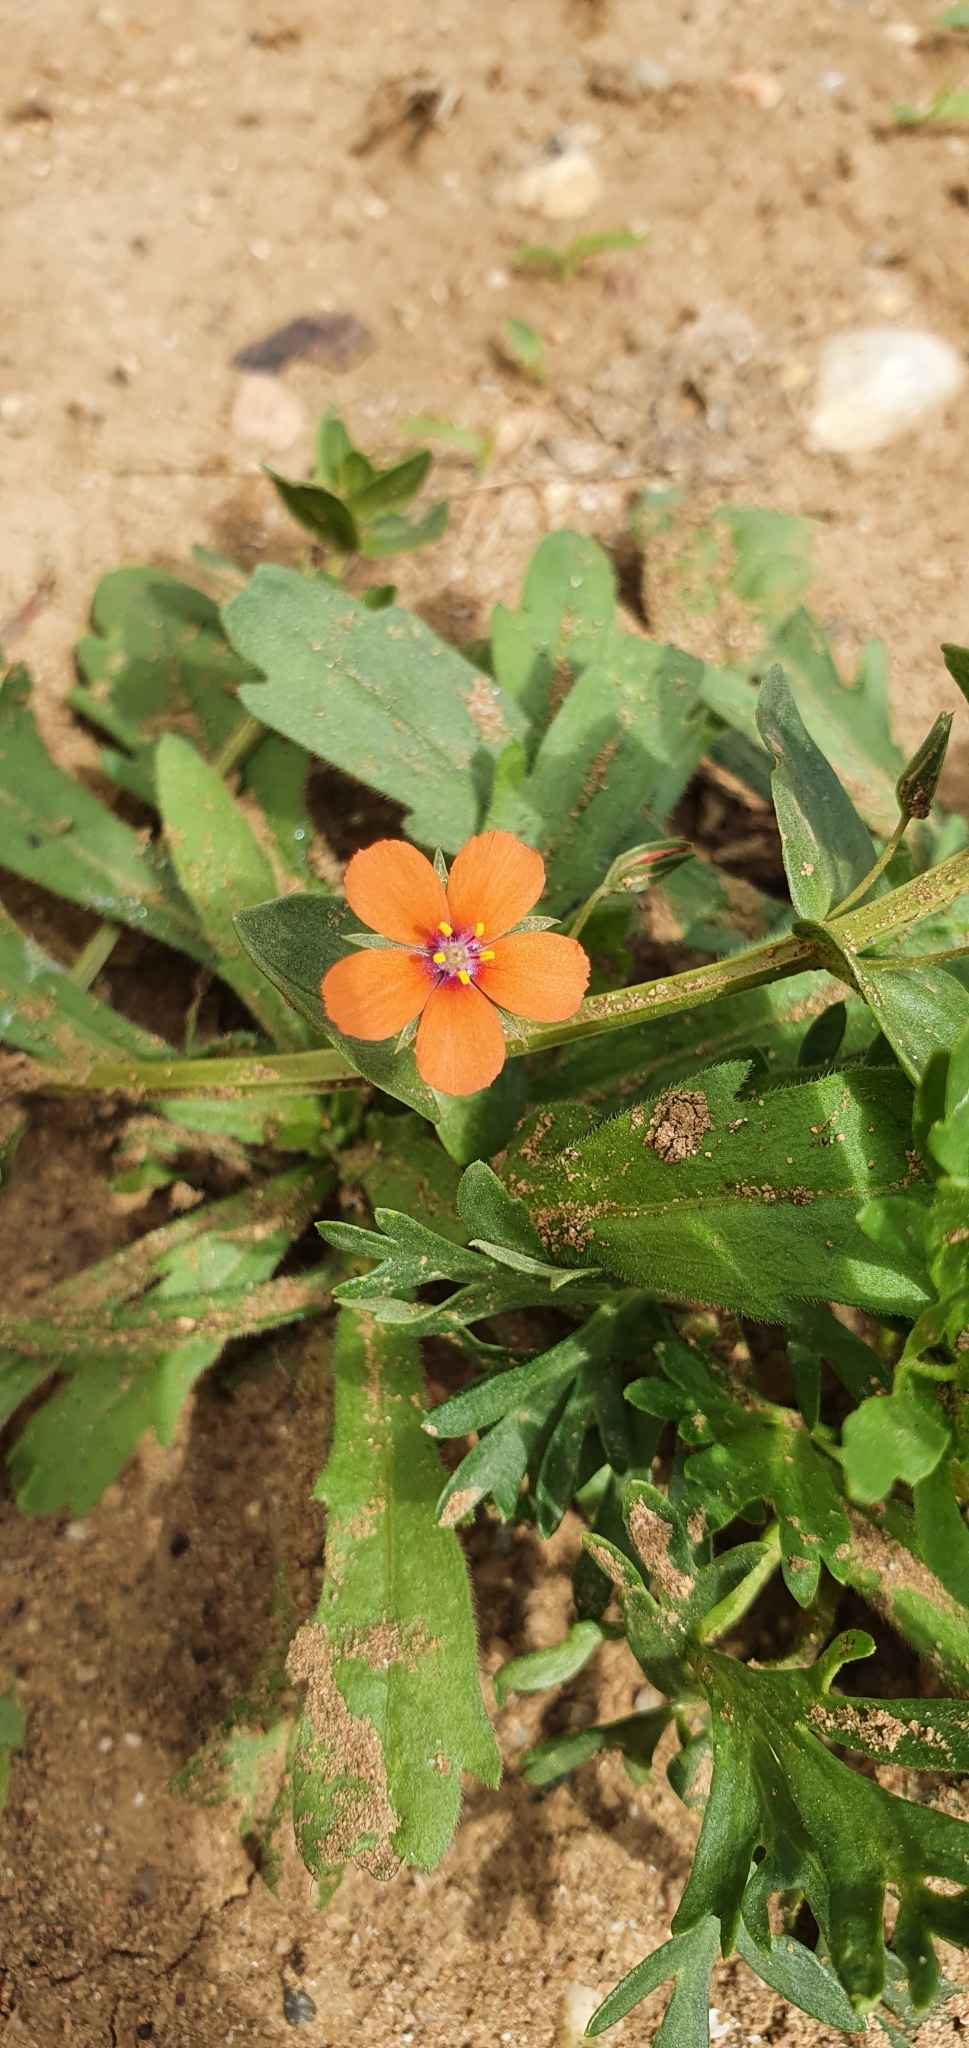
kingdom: Plantae
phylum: Tracheophyta
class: Magnoliopsida
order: Ericales
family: Primulaceae
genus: Lysimachia
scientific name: Lysimachia arvensis
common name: Scarlet pimpernel
